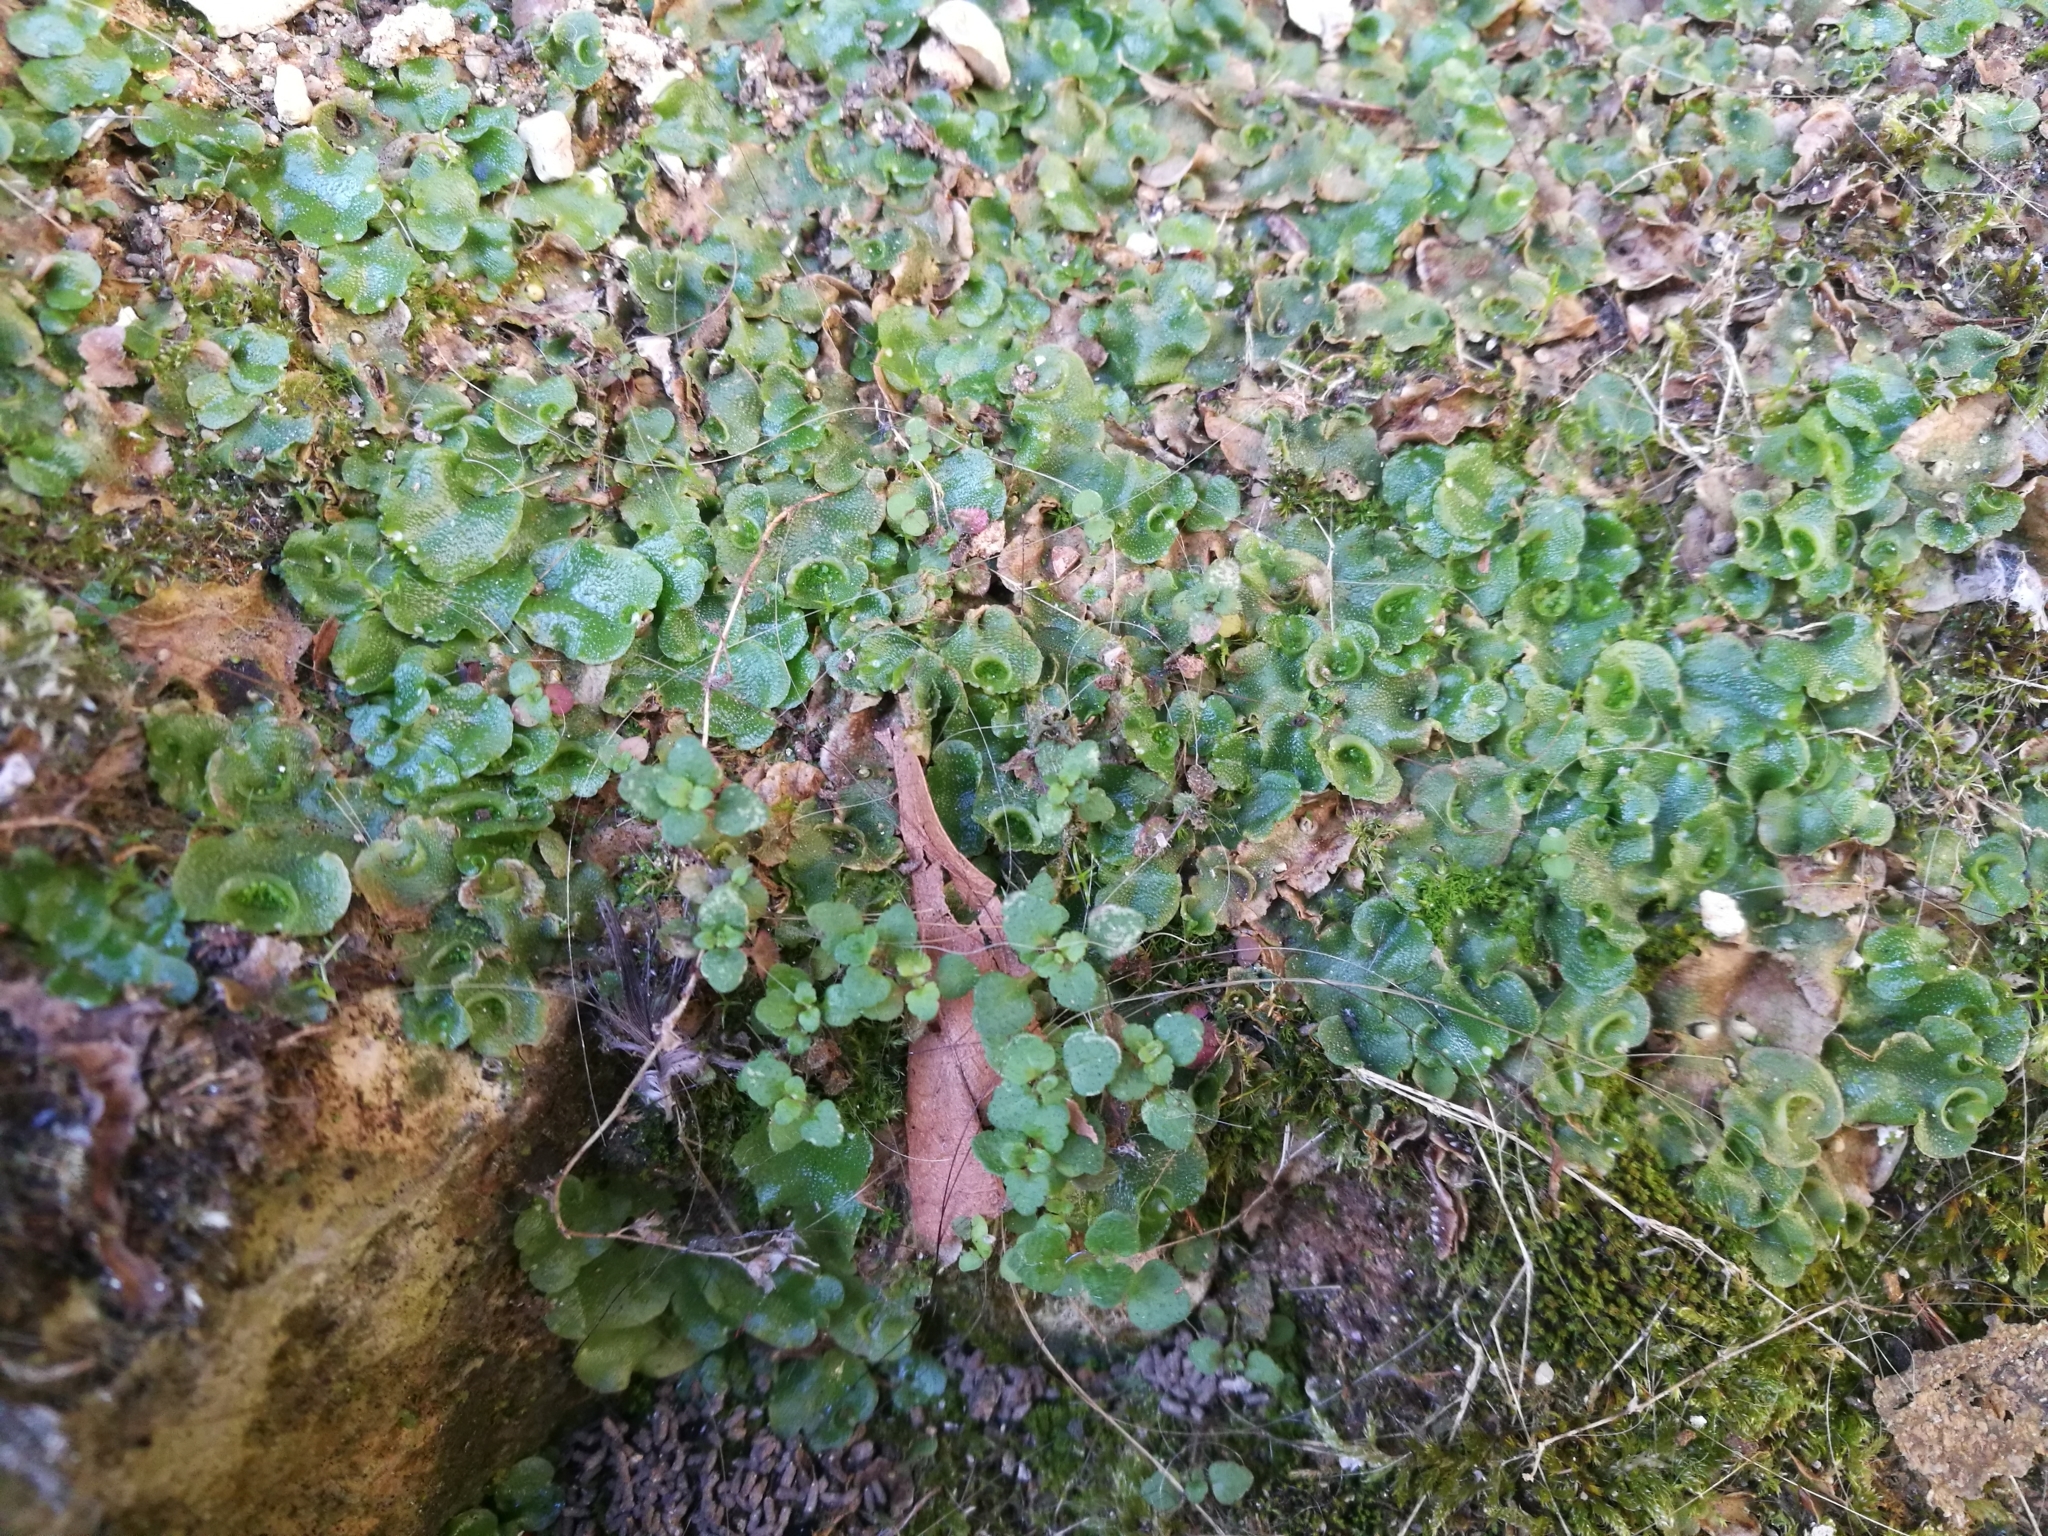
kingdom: Plantae
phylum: Marchantiophyta
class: Marchantiopsida
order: Lunulariales
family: Lunulariaceae
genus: Lunularia
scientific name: Lunularia cruciata
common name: Crescent-cup liverwort
